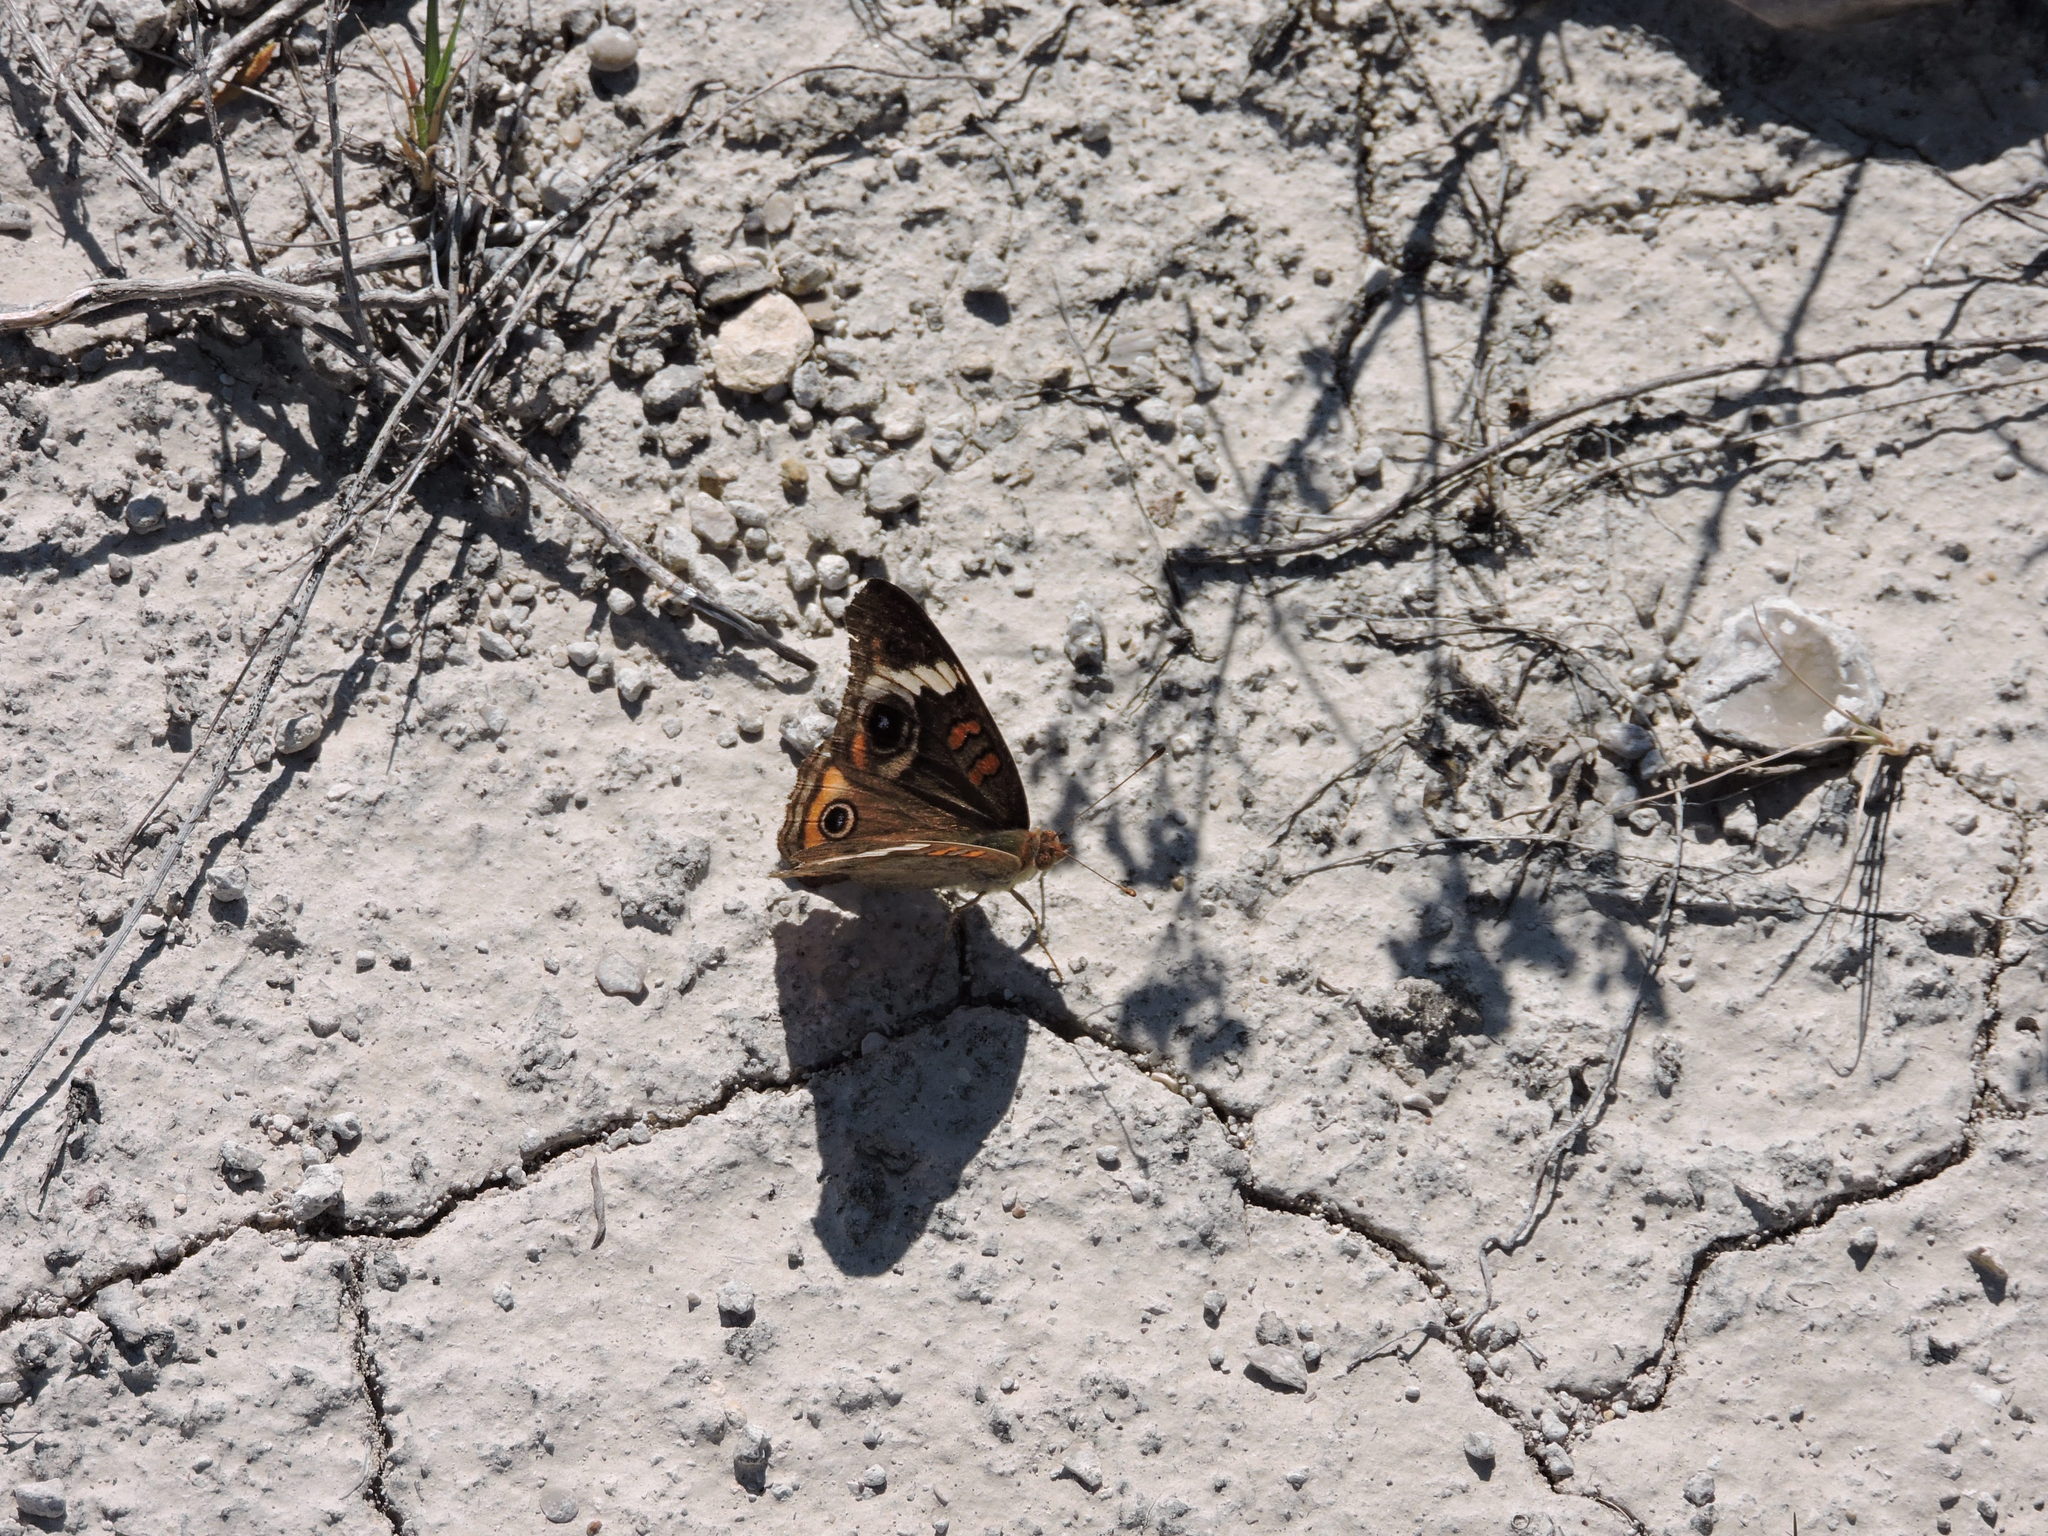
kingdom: Animalia
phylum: Arthropoda
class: Insecta
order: Lepidoptera
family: Nymphalidae
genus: Junonia
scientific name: Junonia coenia
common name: Common buckeye
